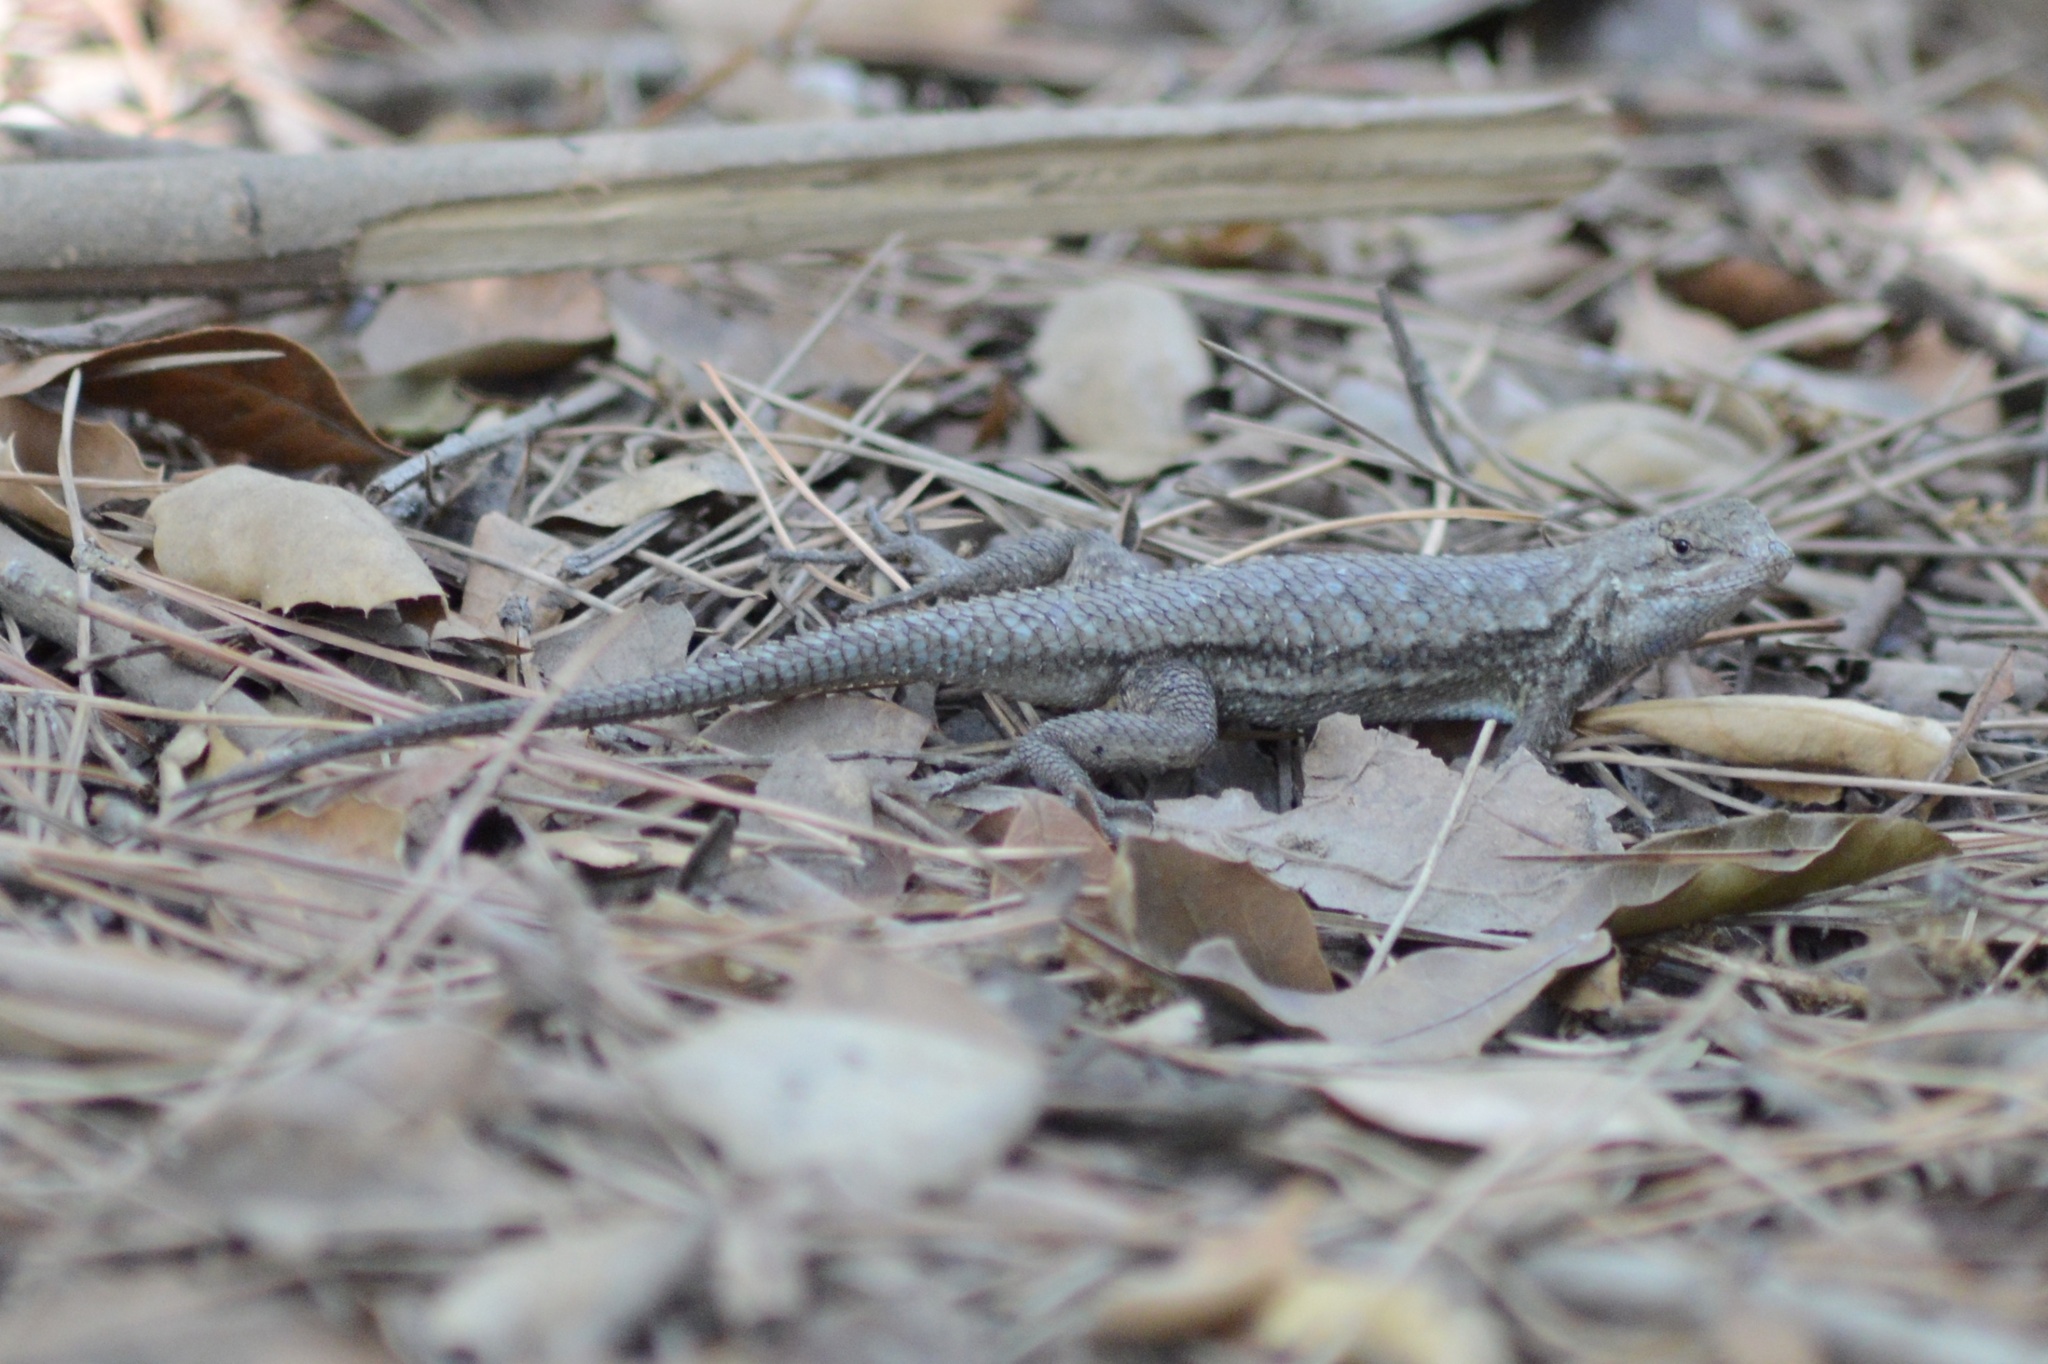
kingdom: Animalia
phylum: Chordata
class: Squamata
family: Phrynosomatidae
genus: Sceloporus
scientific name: Sceloporus occidentalis
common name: Western fence lizard
